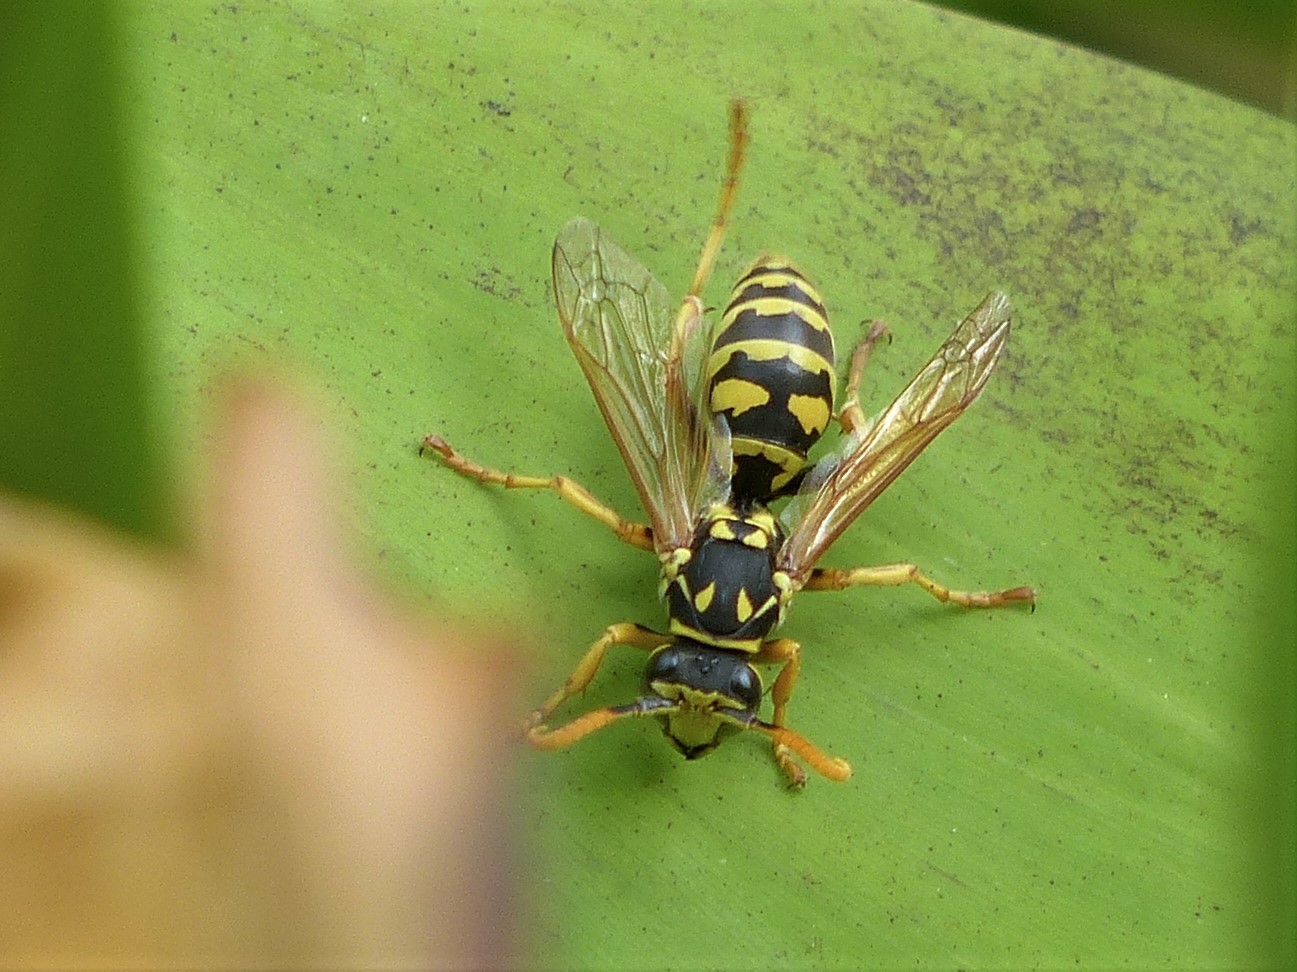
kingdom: Animalia
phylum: Arthropoda
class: Insecta
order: Hymenoptera
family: Eumenidae
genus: Polistes
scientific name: Polistes dominula
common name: Paper wasp
